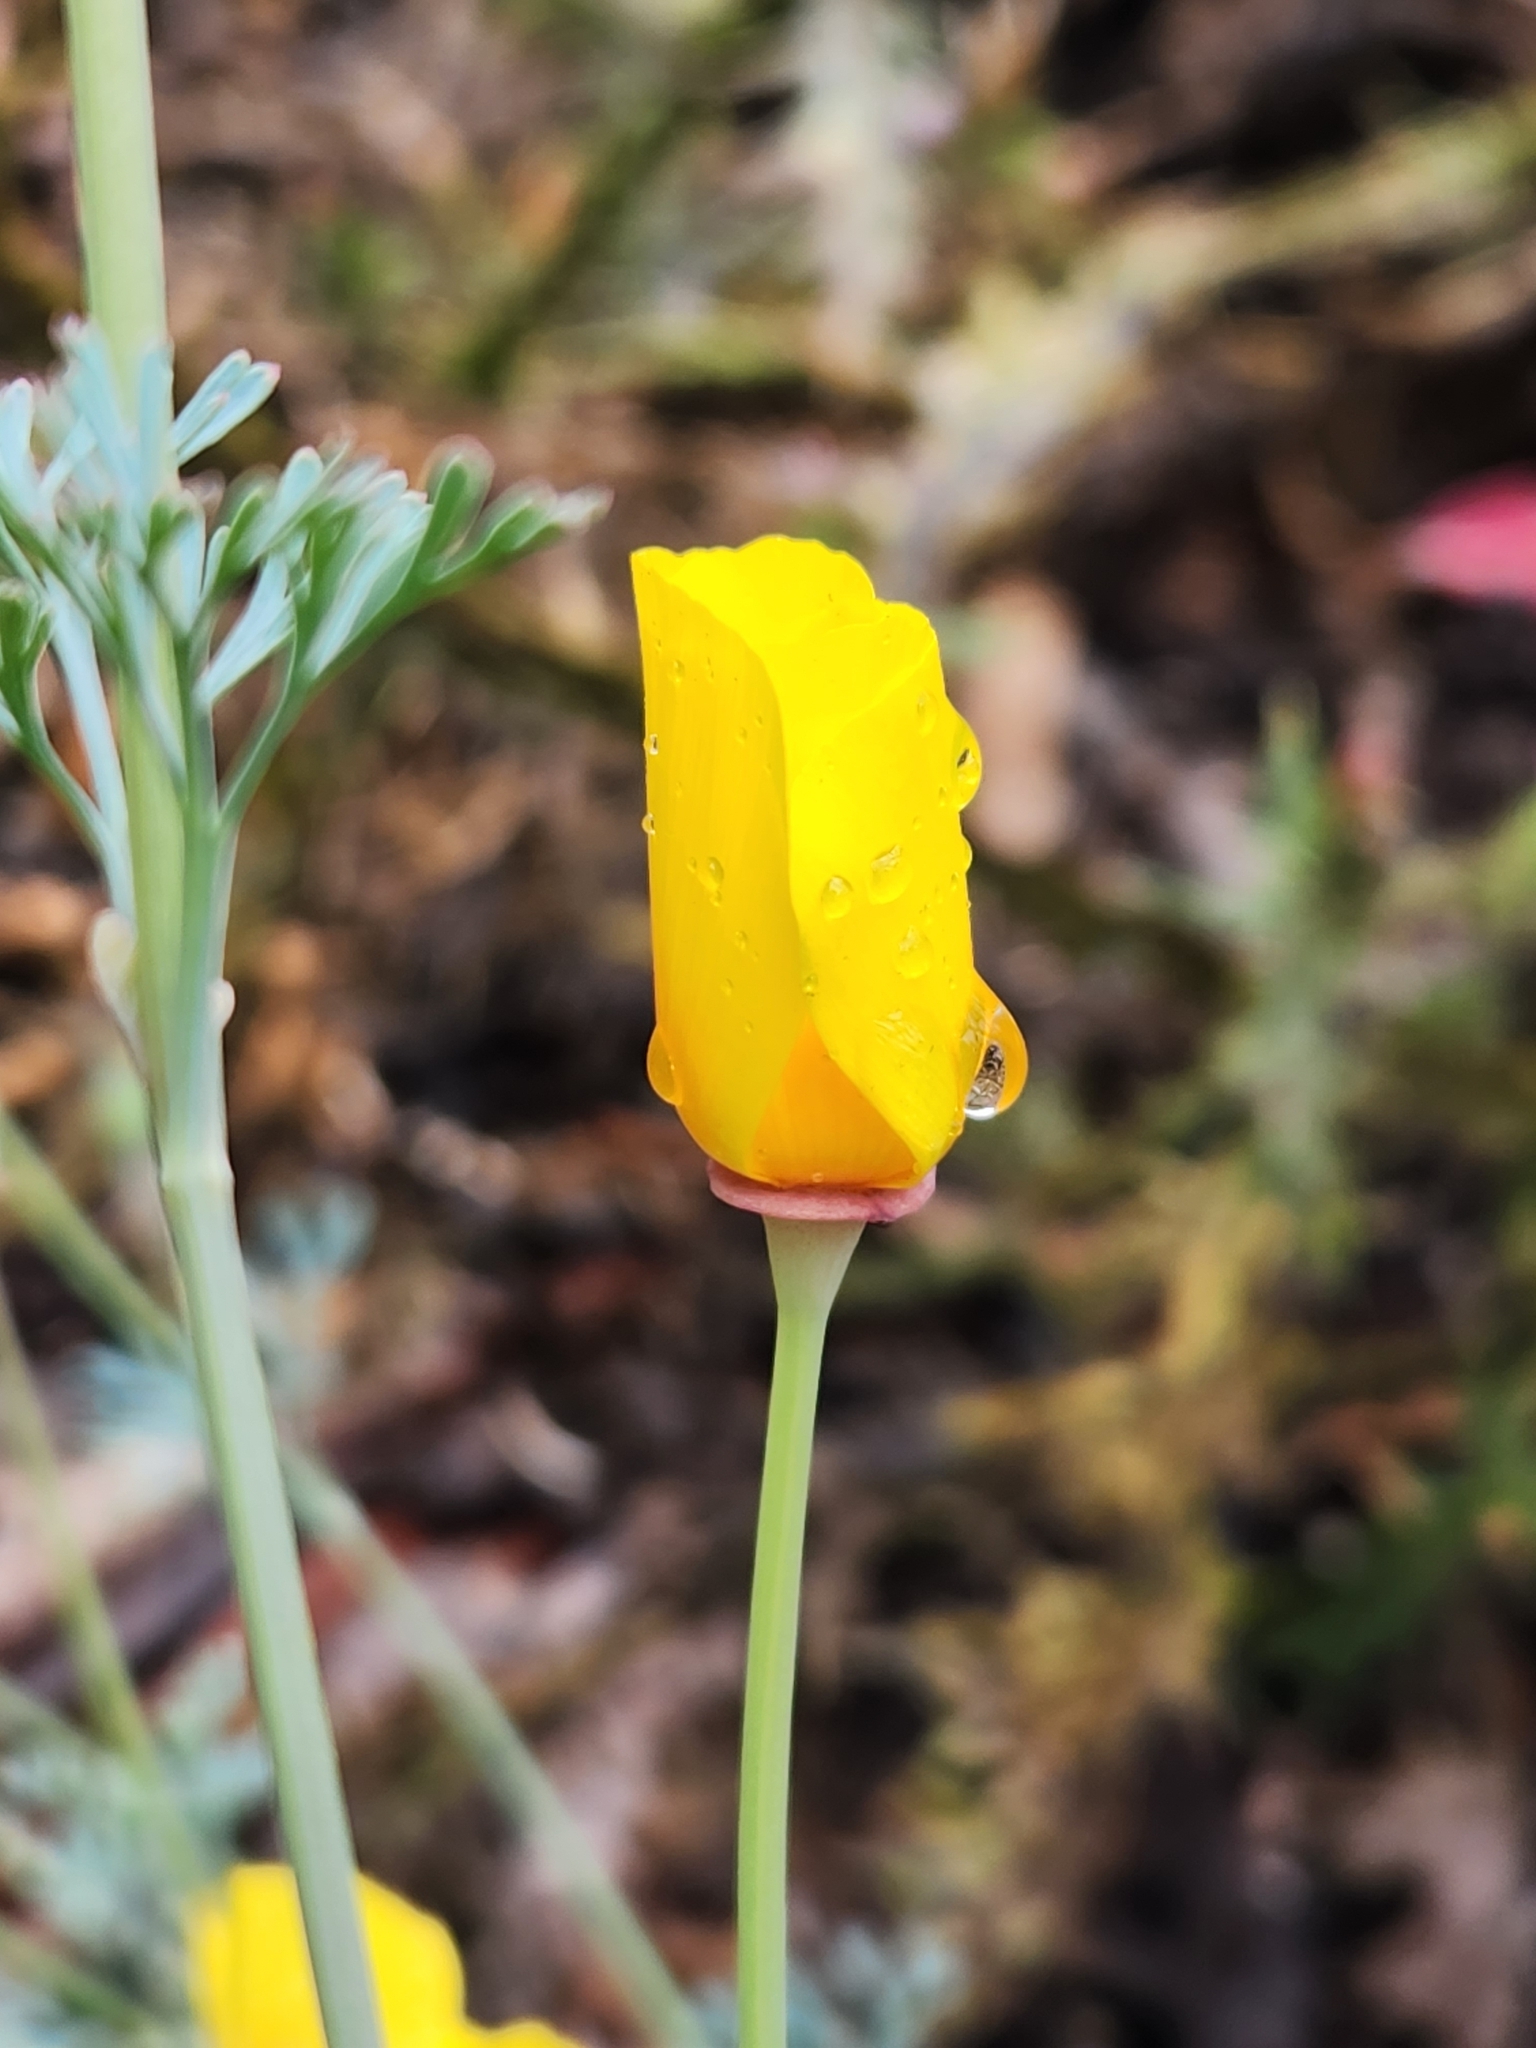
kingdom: Plantae
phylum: Tracheophyta
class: Magnoliopsida
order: Ranunculales
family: Papaveraceae
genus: Eschscholzia
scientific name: Eschscholzia californica
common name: California poppy
